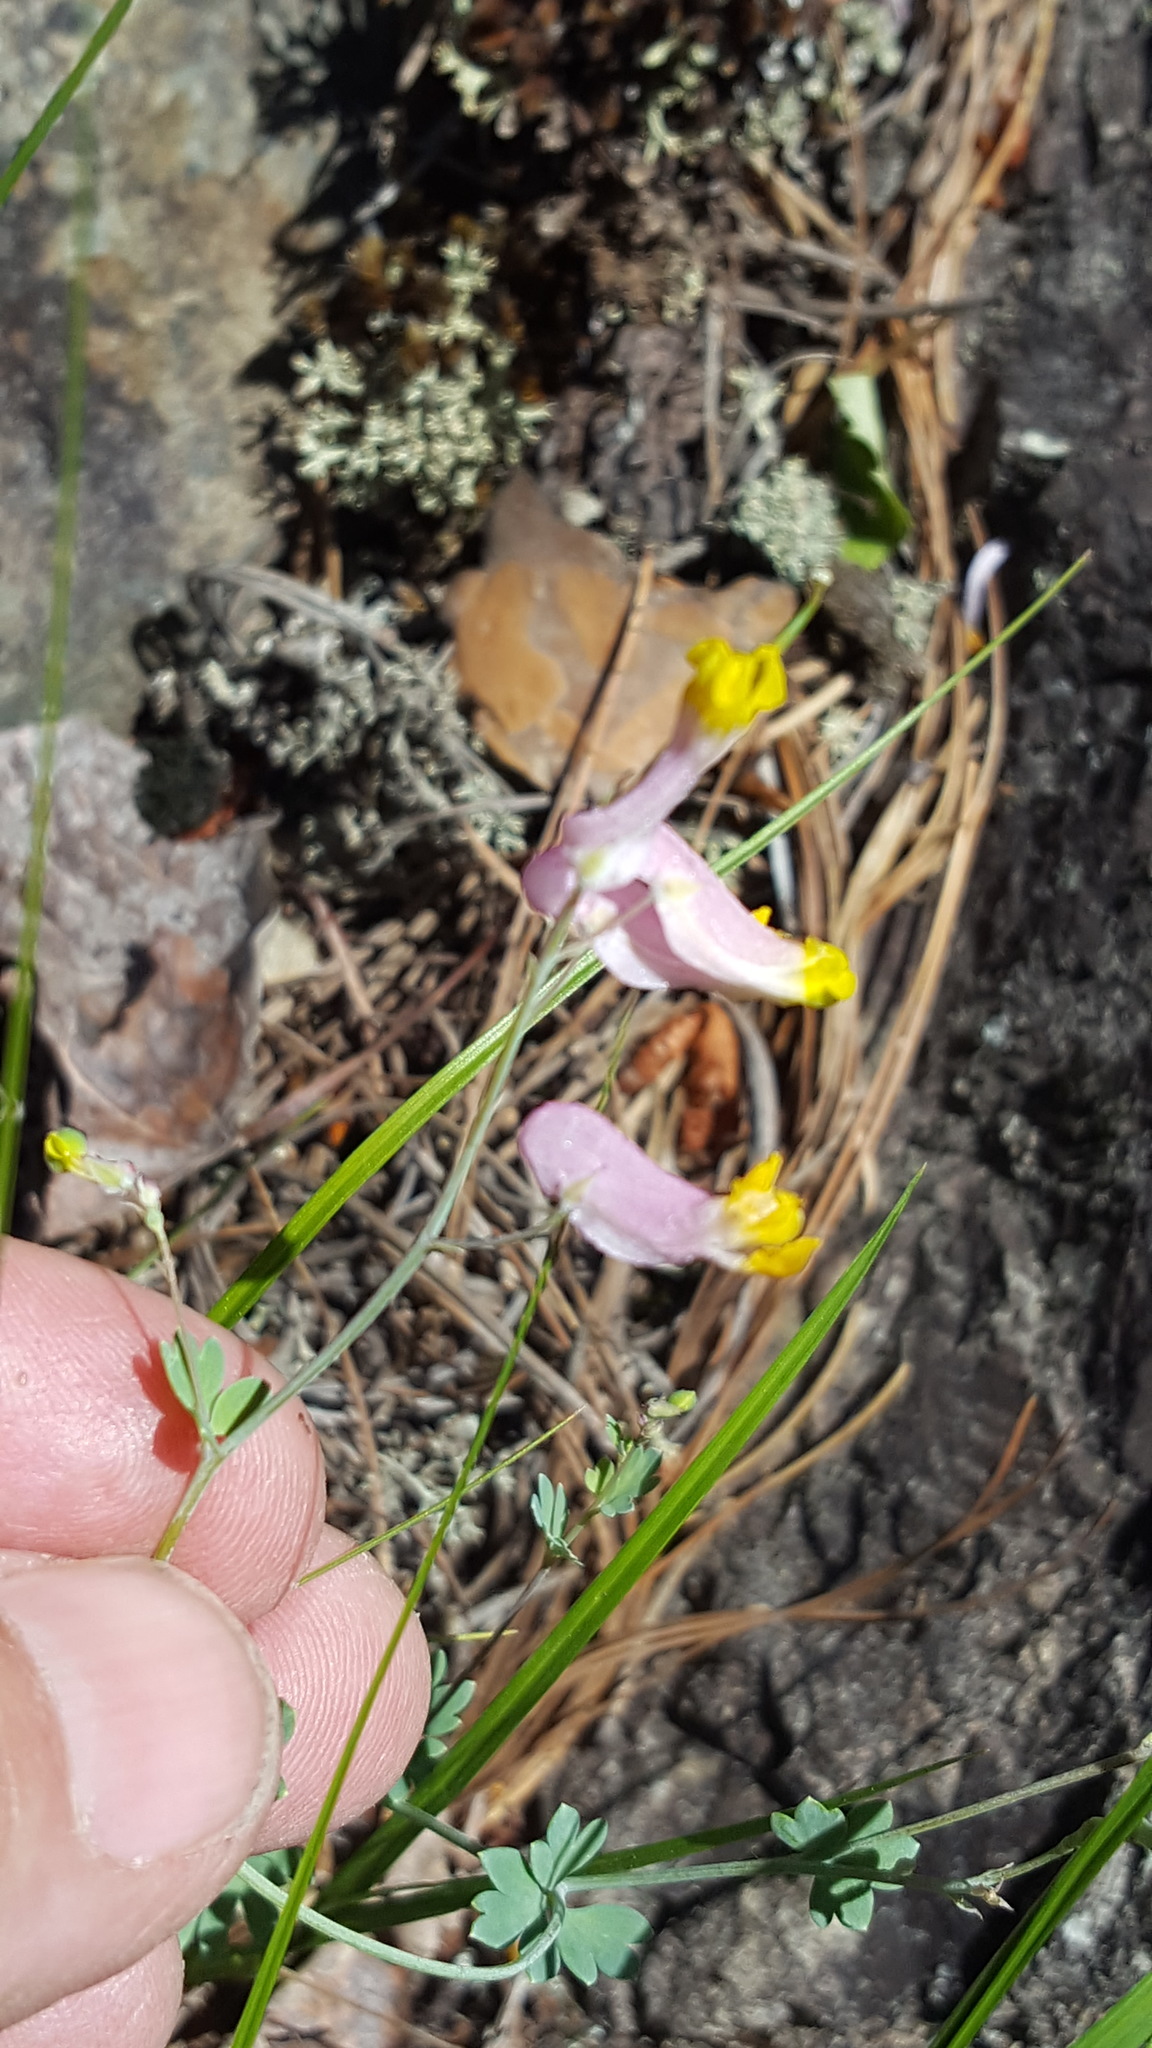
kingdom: Plantae
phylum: Tracheophyta
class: Magnoliopsida
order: Ranunculales
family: Papaveraceae
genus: Capnoides
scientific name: Capnoides sempervirens
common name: Rock harlequin
